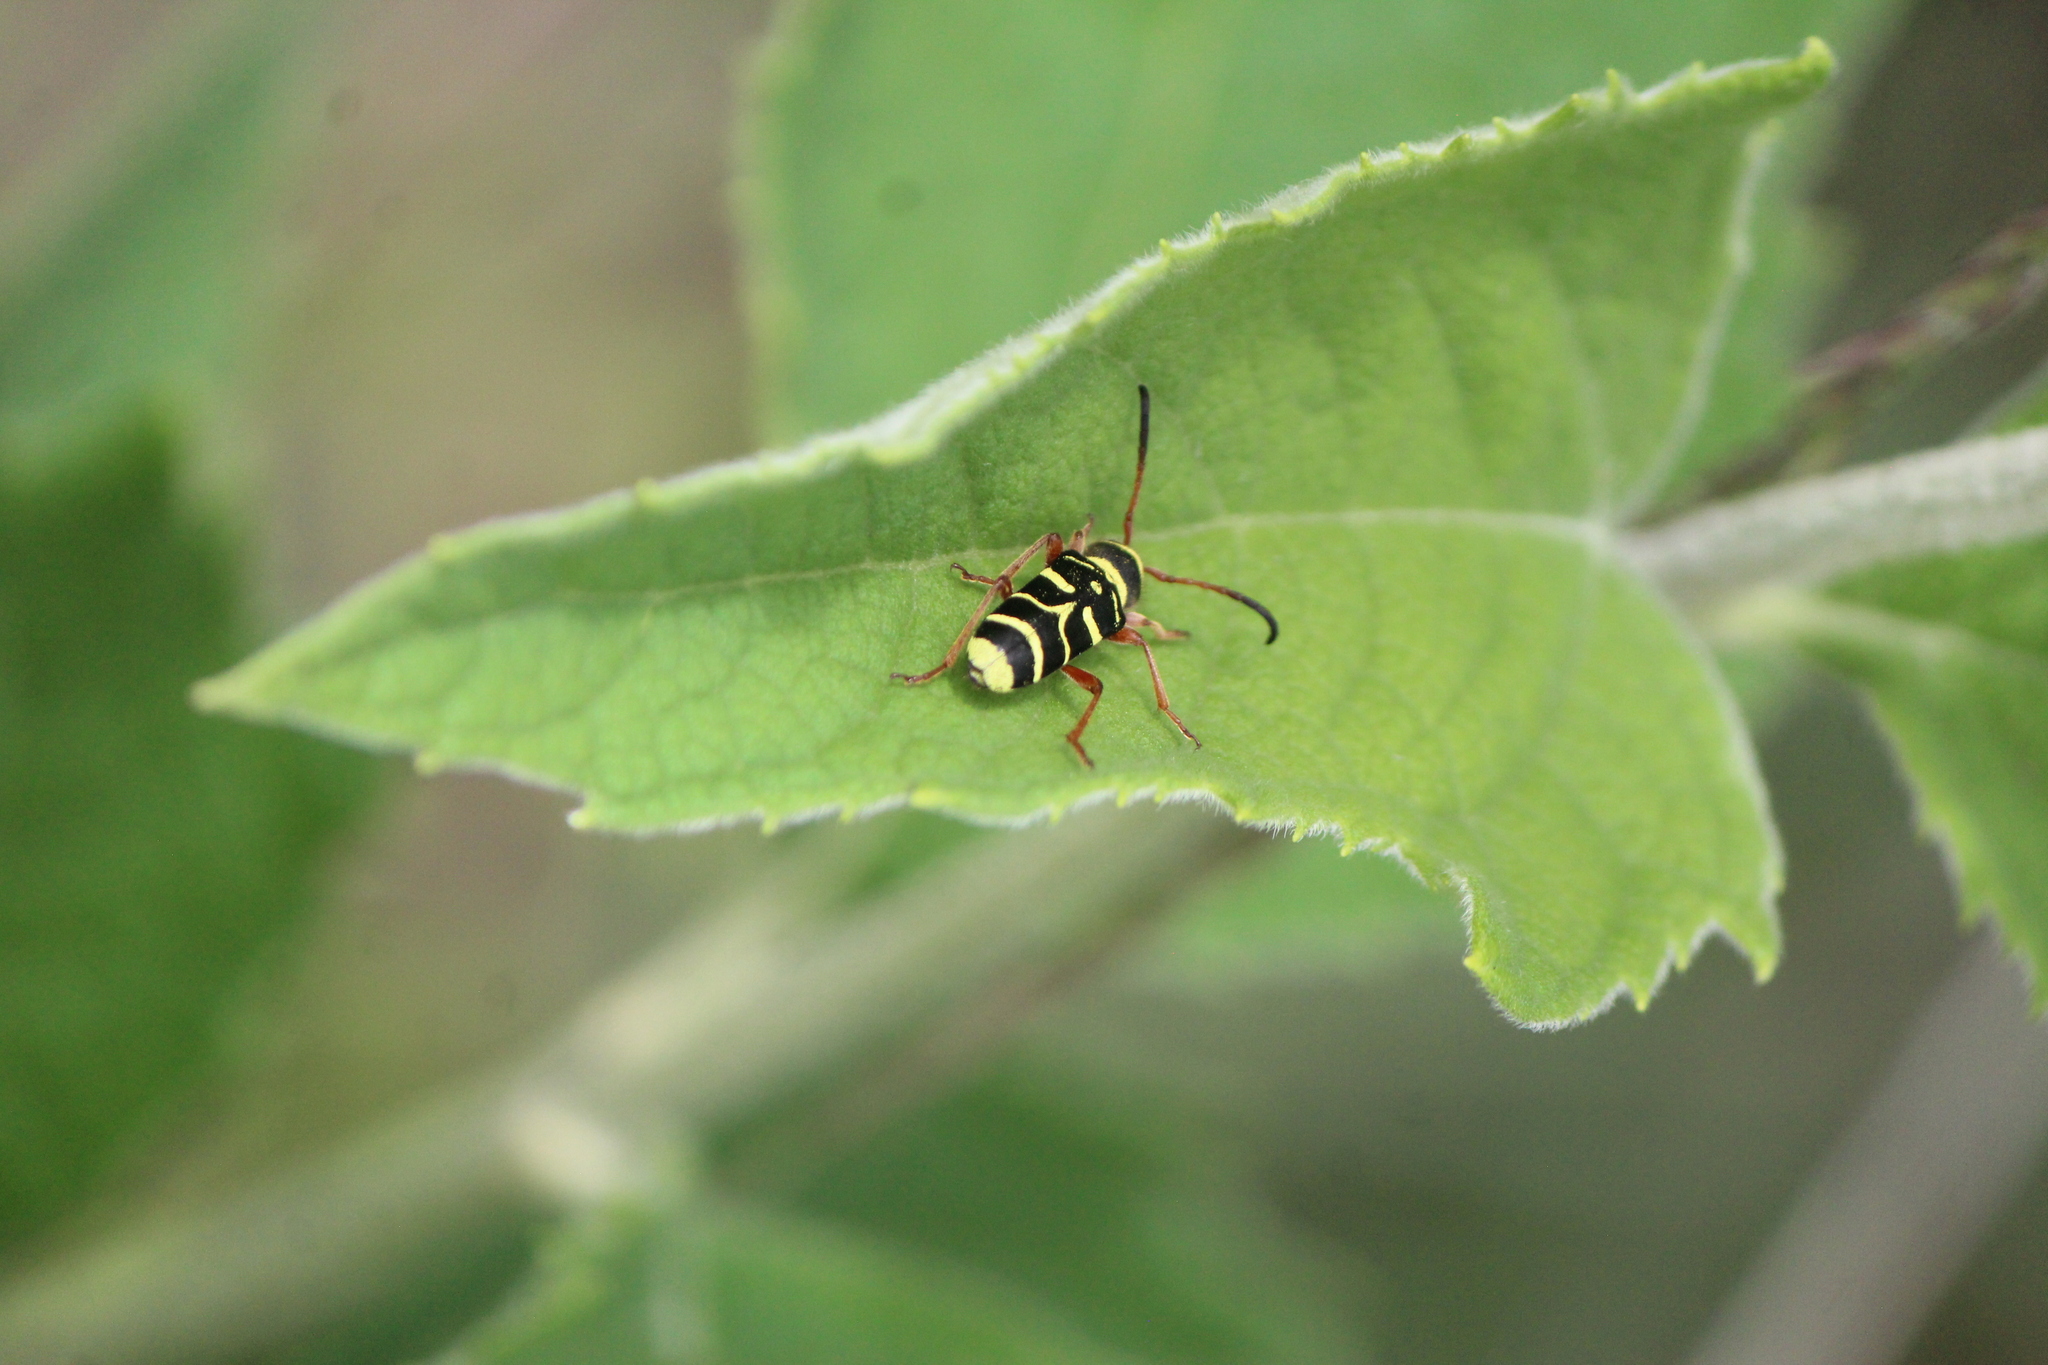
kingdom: Animalia
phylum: Arthropoda
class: Insecta
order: Coleoptera
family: Cerambycidae
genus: Ochraethes
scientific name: Ochraethes dimidiaticornis
